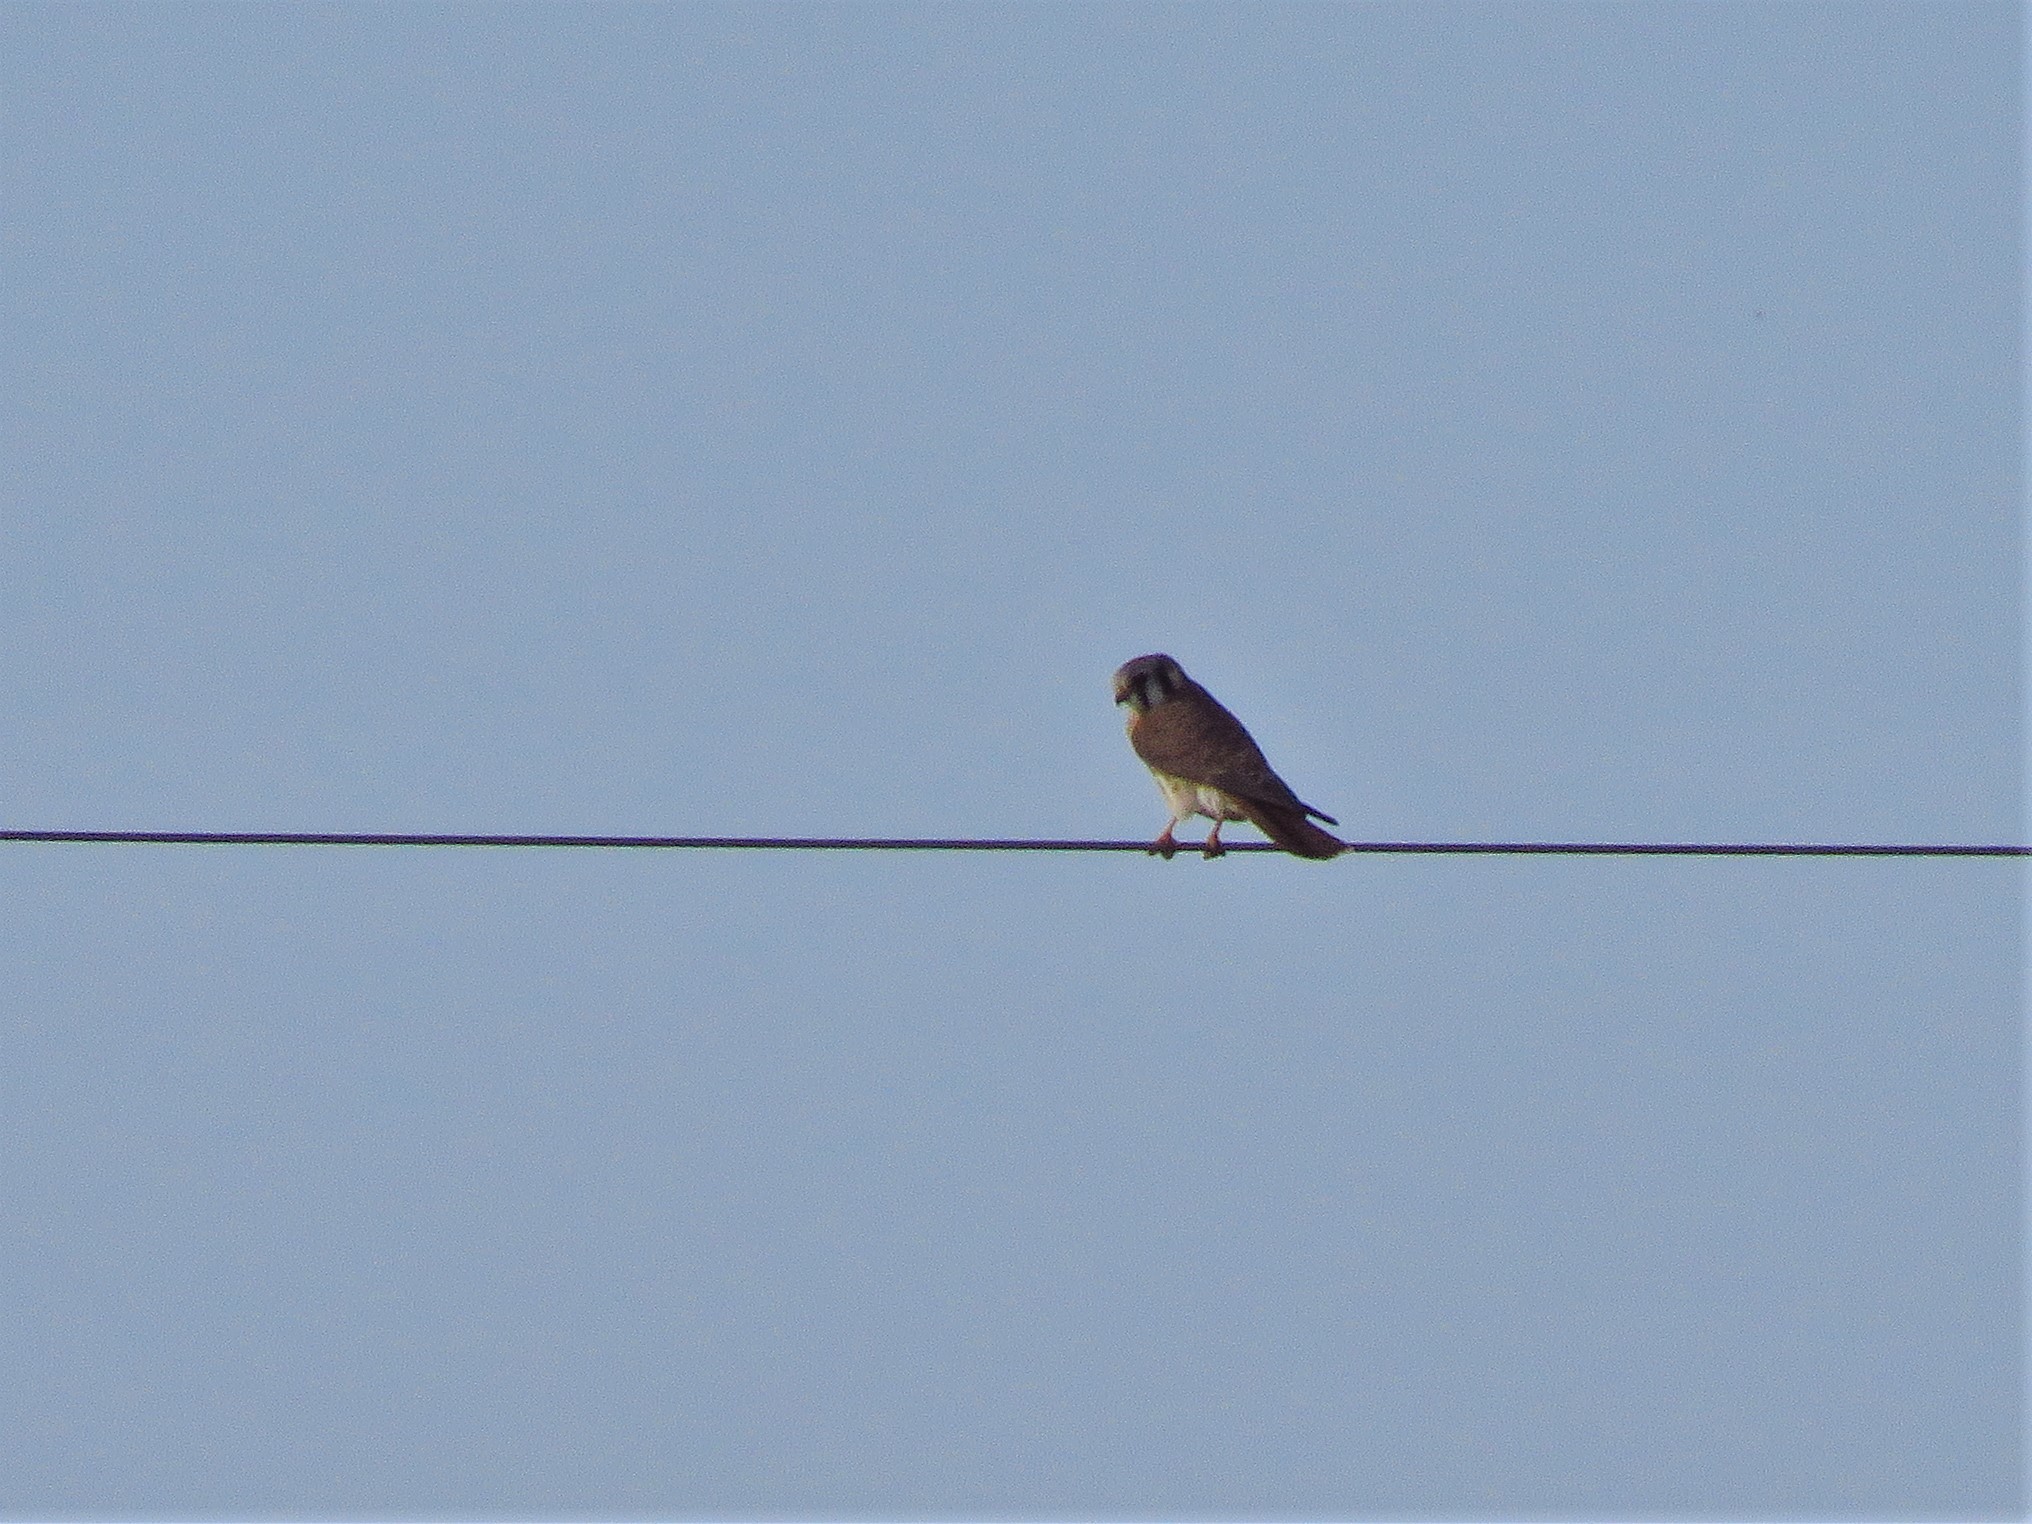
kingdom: Animalia
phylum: Chordata
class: Aves
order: Falconiformes
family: Falconidae
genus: Falco
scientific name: Falco sparverius
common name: American kestrel
